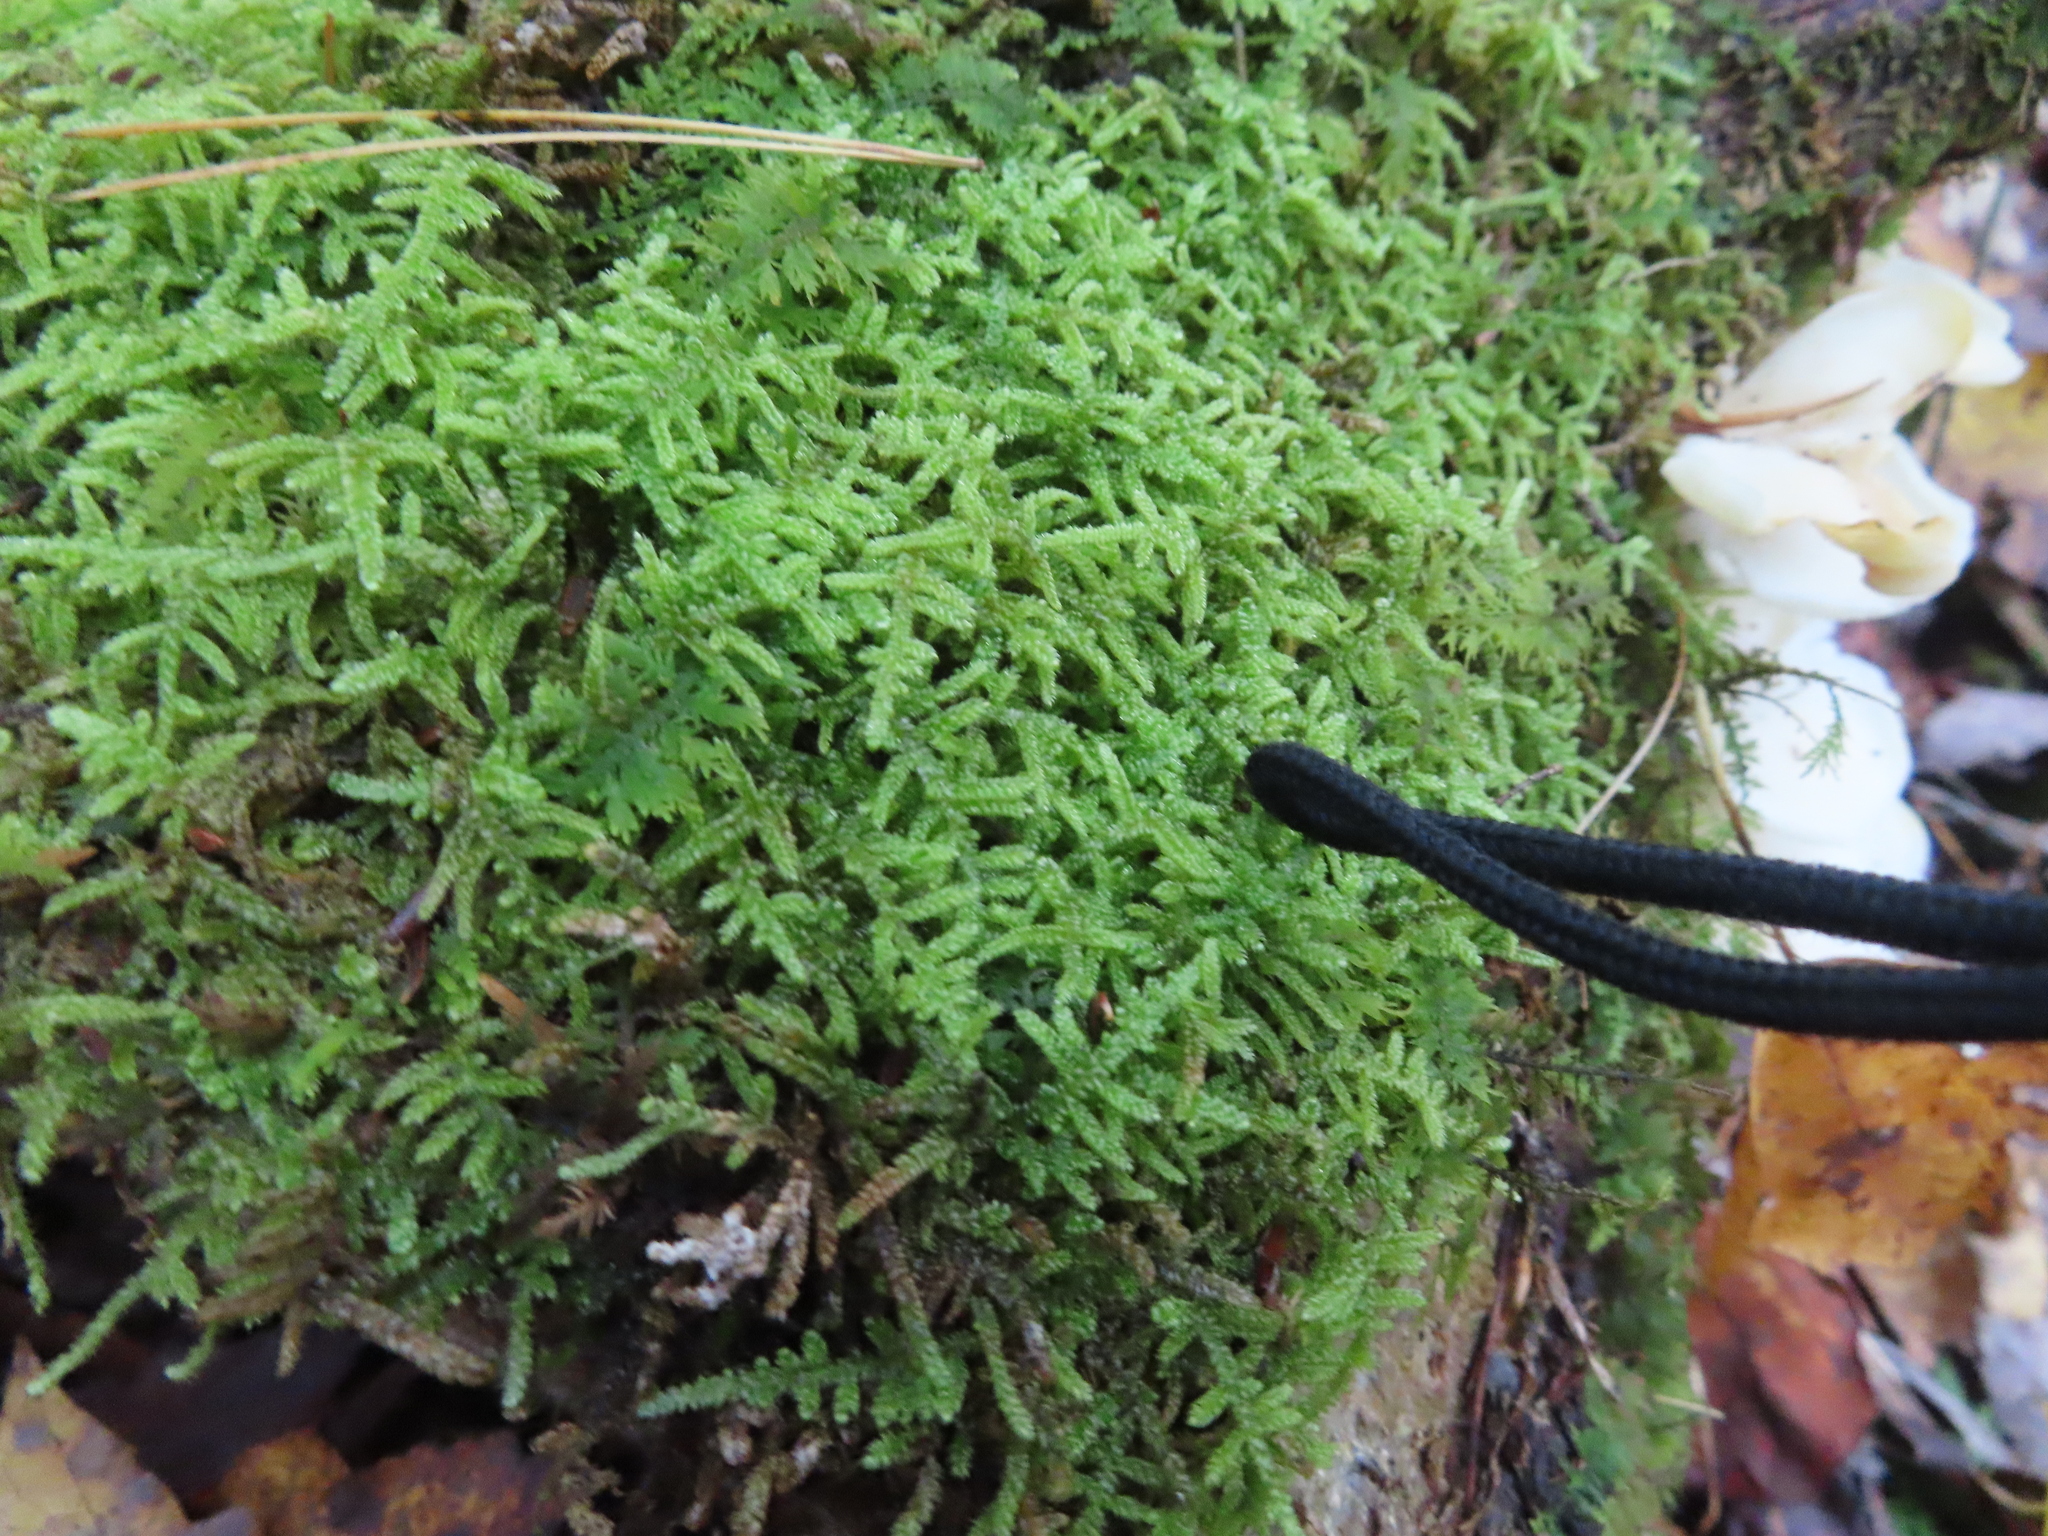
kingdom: Plantae
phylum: Bryophyta
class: Bryopsida
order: Hypnales
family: Callicladiaceae
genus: Callicladium
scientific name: Callicladium imponens
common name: Brocade moss
